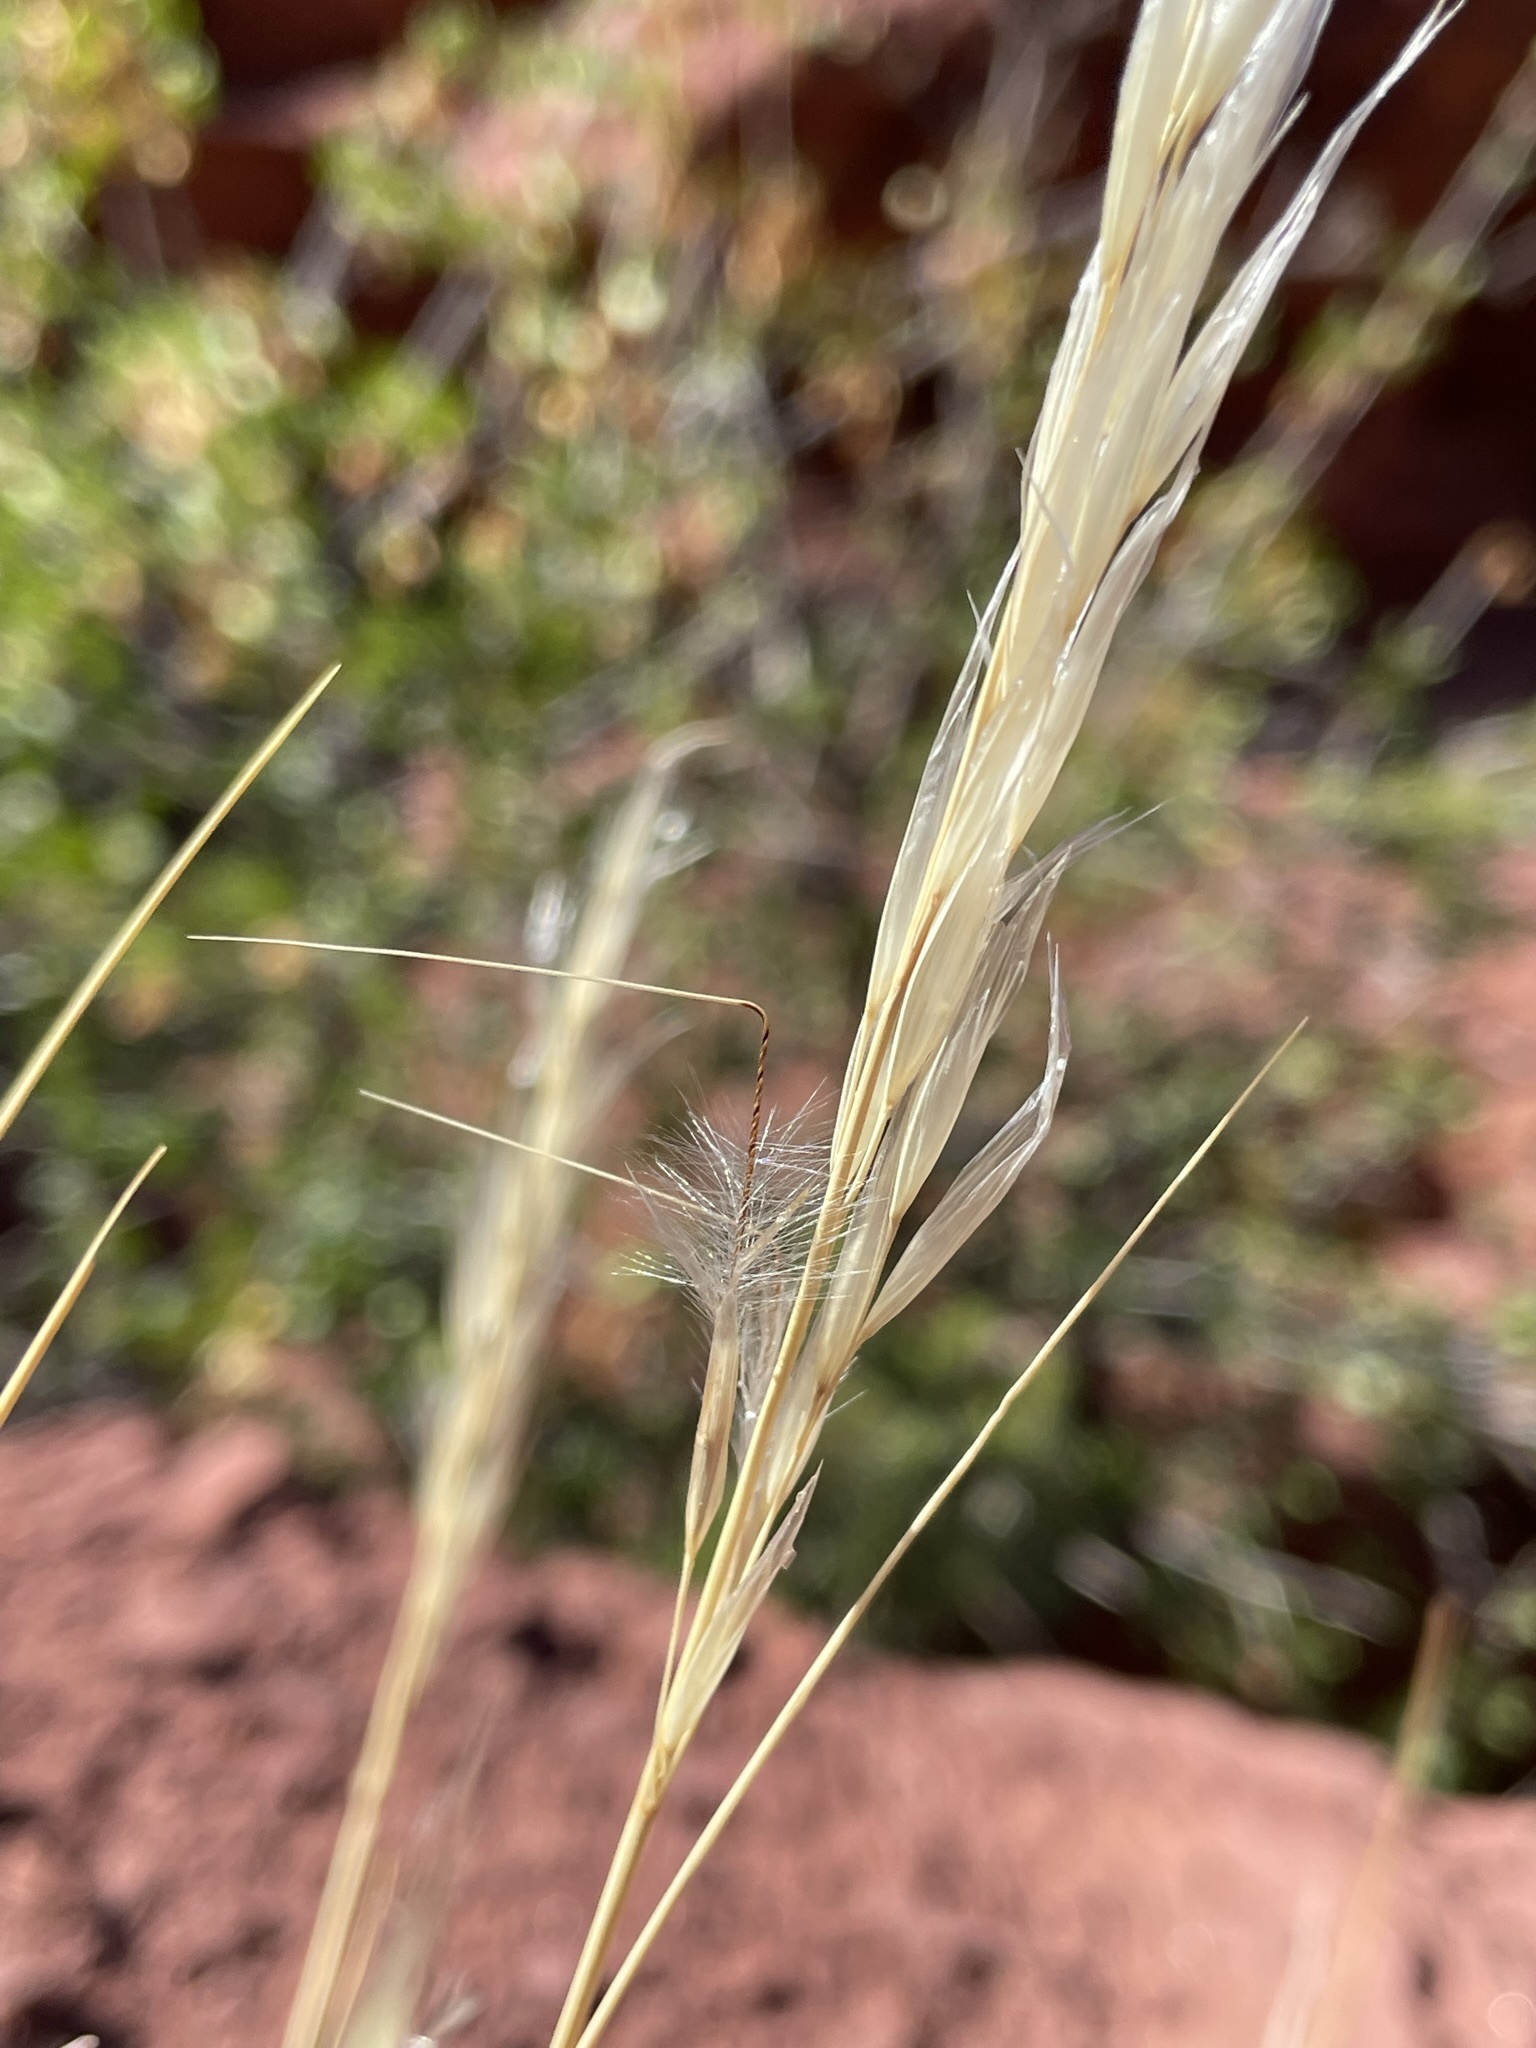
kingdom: Plantae
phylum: Tracheophyta
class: Liliopsida
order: Poales
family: Poaceae
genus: Pappostipa
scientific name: Pappostipa speciosa
